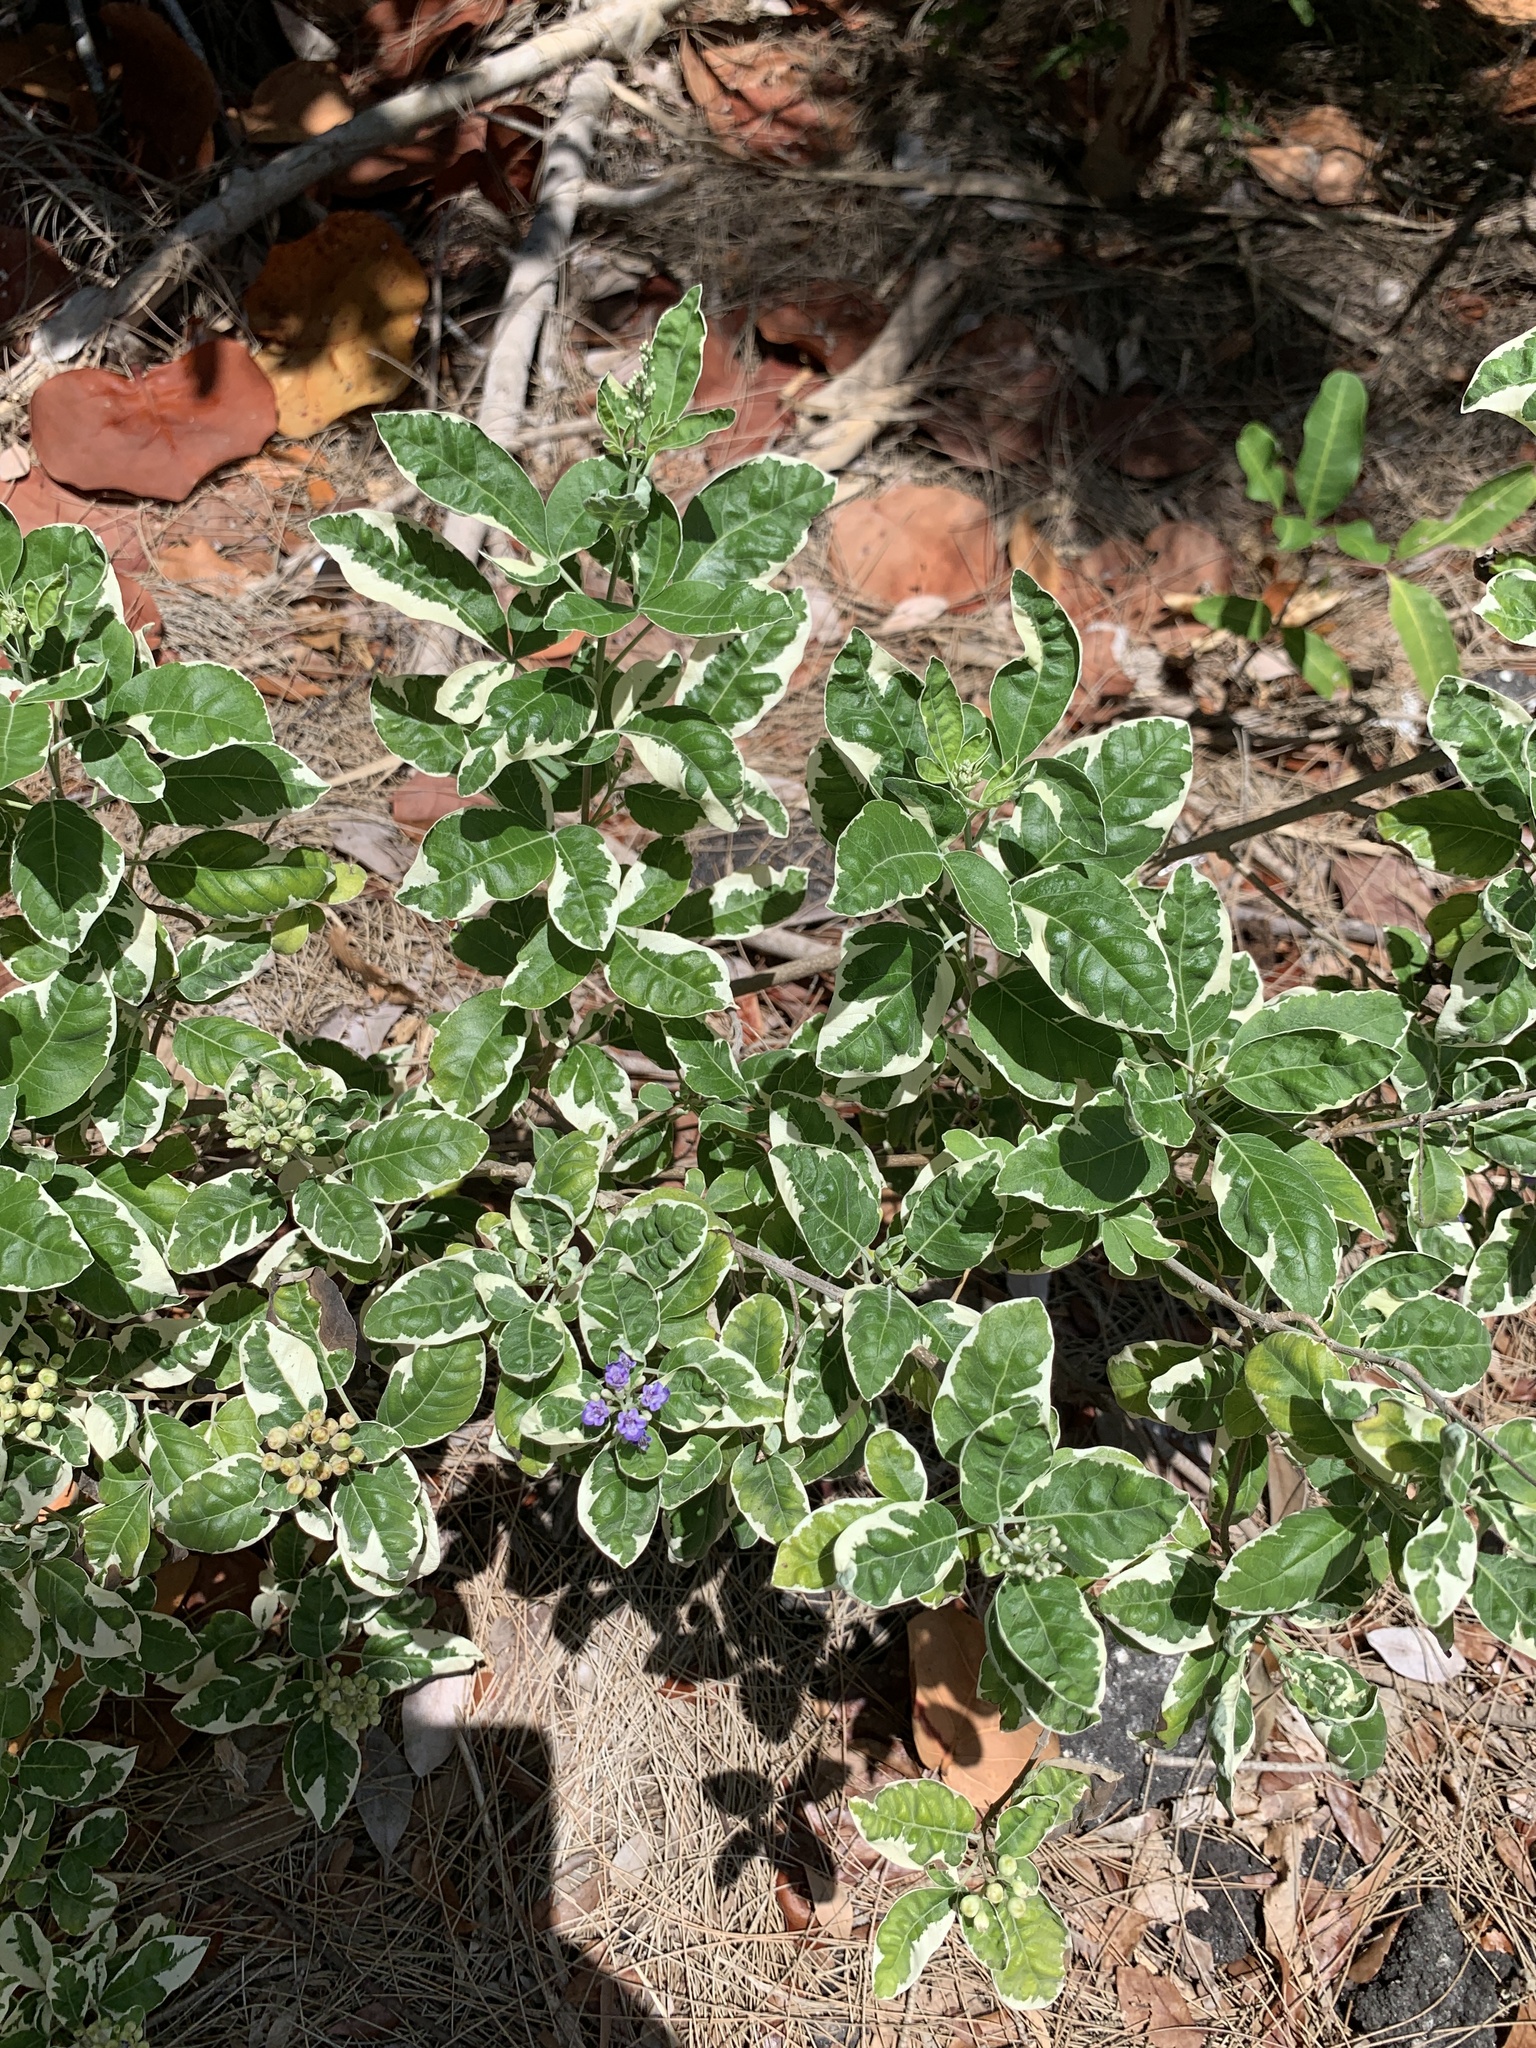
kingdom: Plantae
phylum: Tracheophyta
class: Magnoliopsida
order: Lamiales
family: Lamiaceae
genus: Vitex
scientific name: Vitex trifolia
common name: Simpleleaf chastetree
